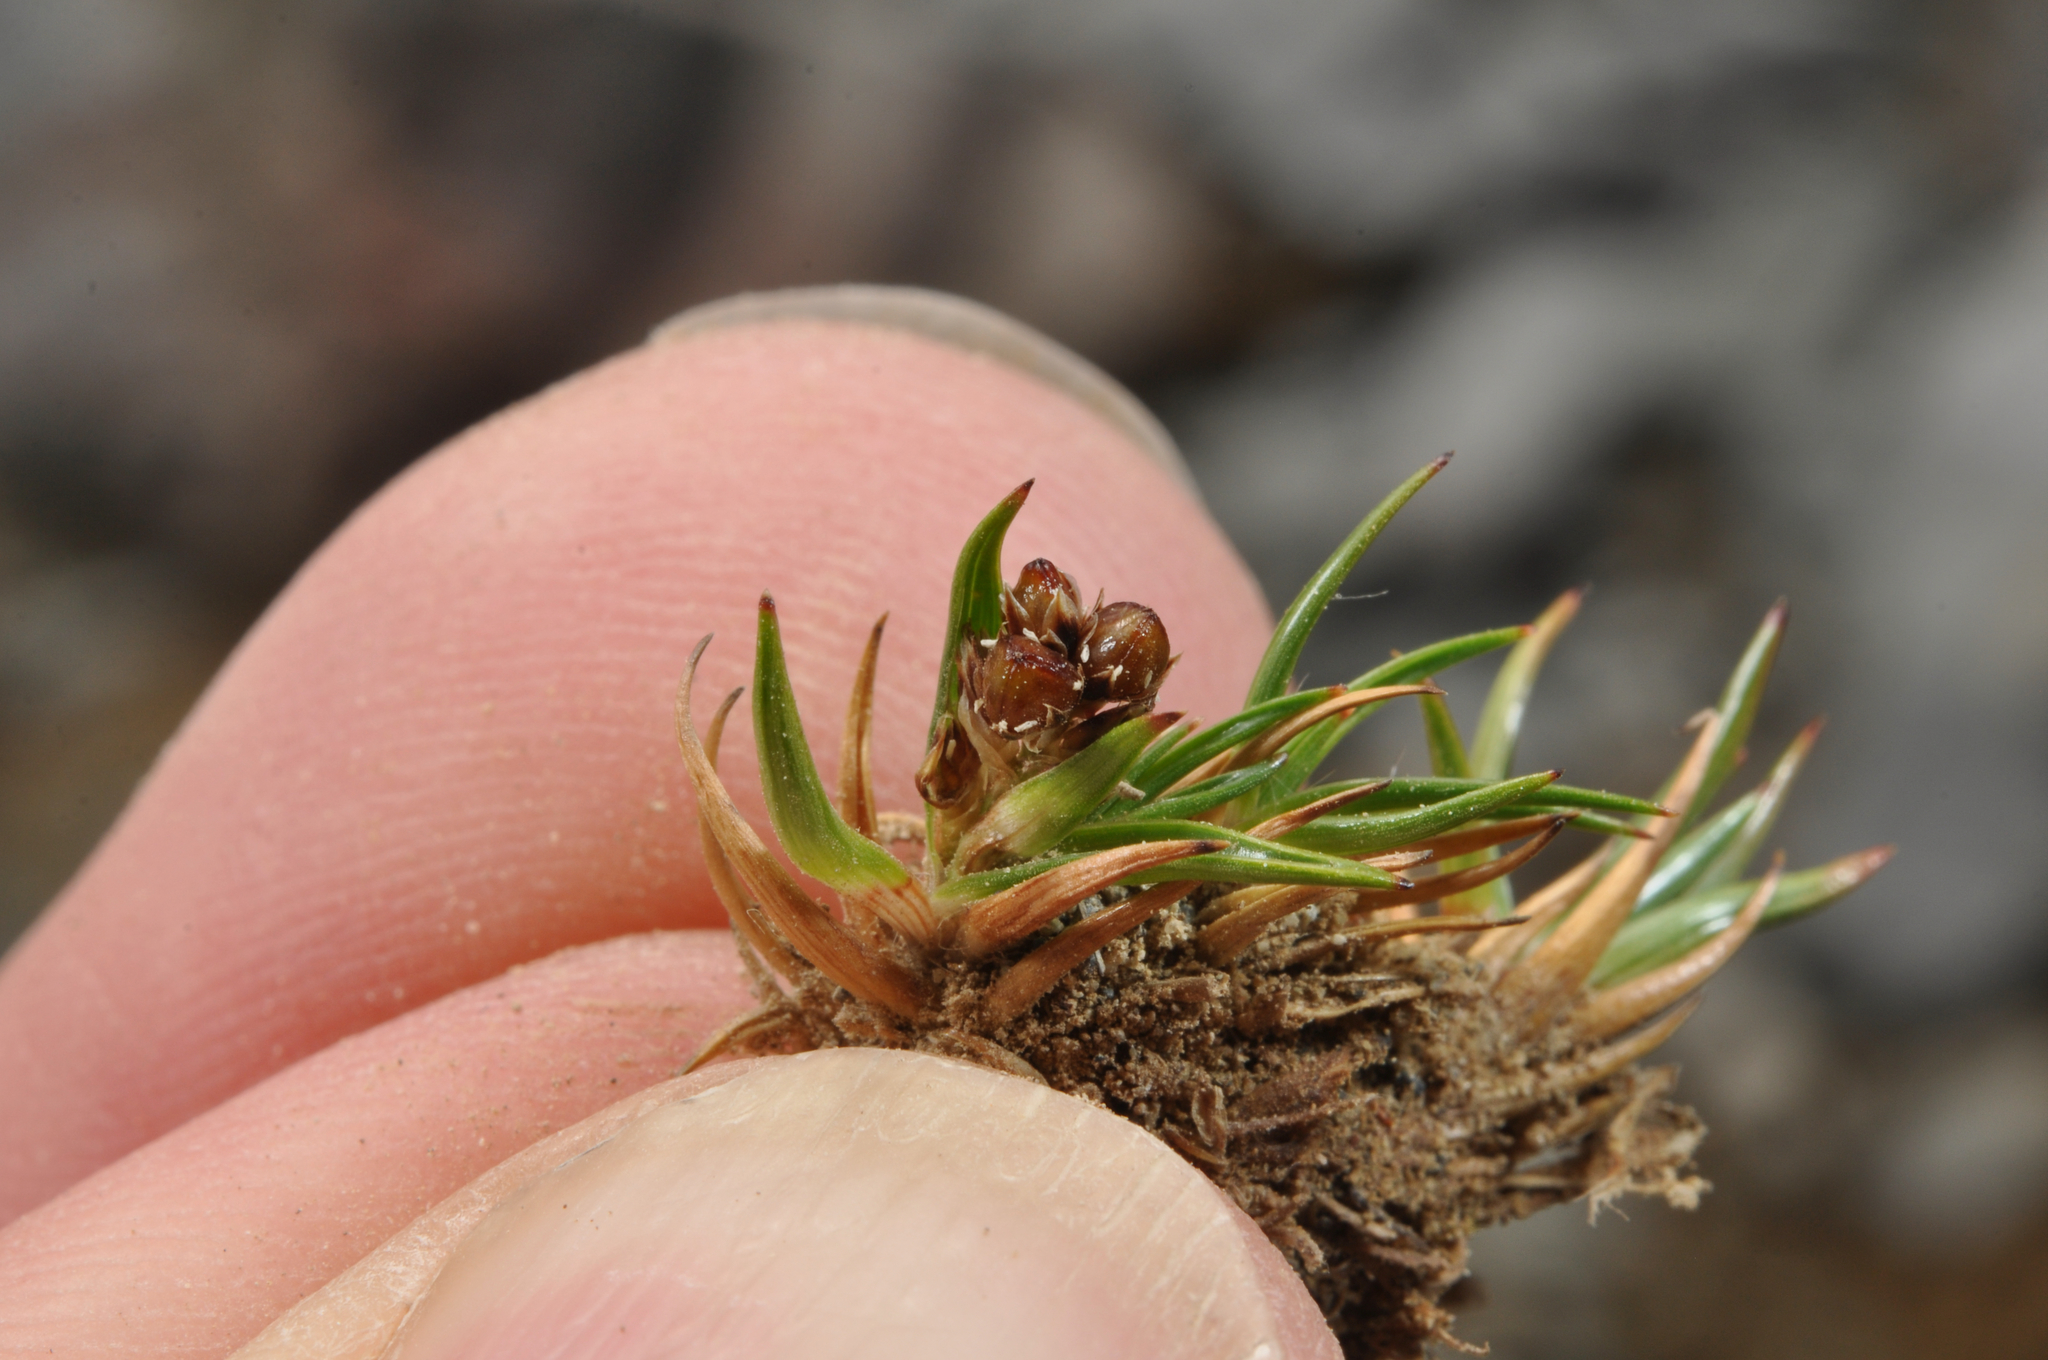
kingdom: Plantae
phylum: Tracheophyta
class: Liliopsida
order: Poales
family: Juncaceae
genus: Luzula
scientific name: Luzula colensoi
